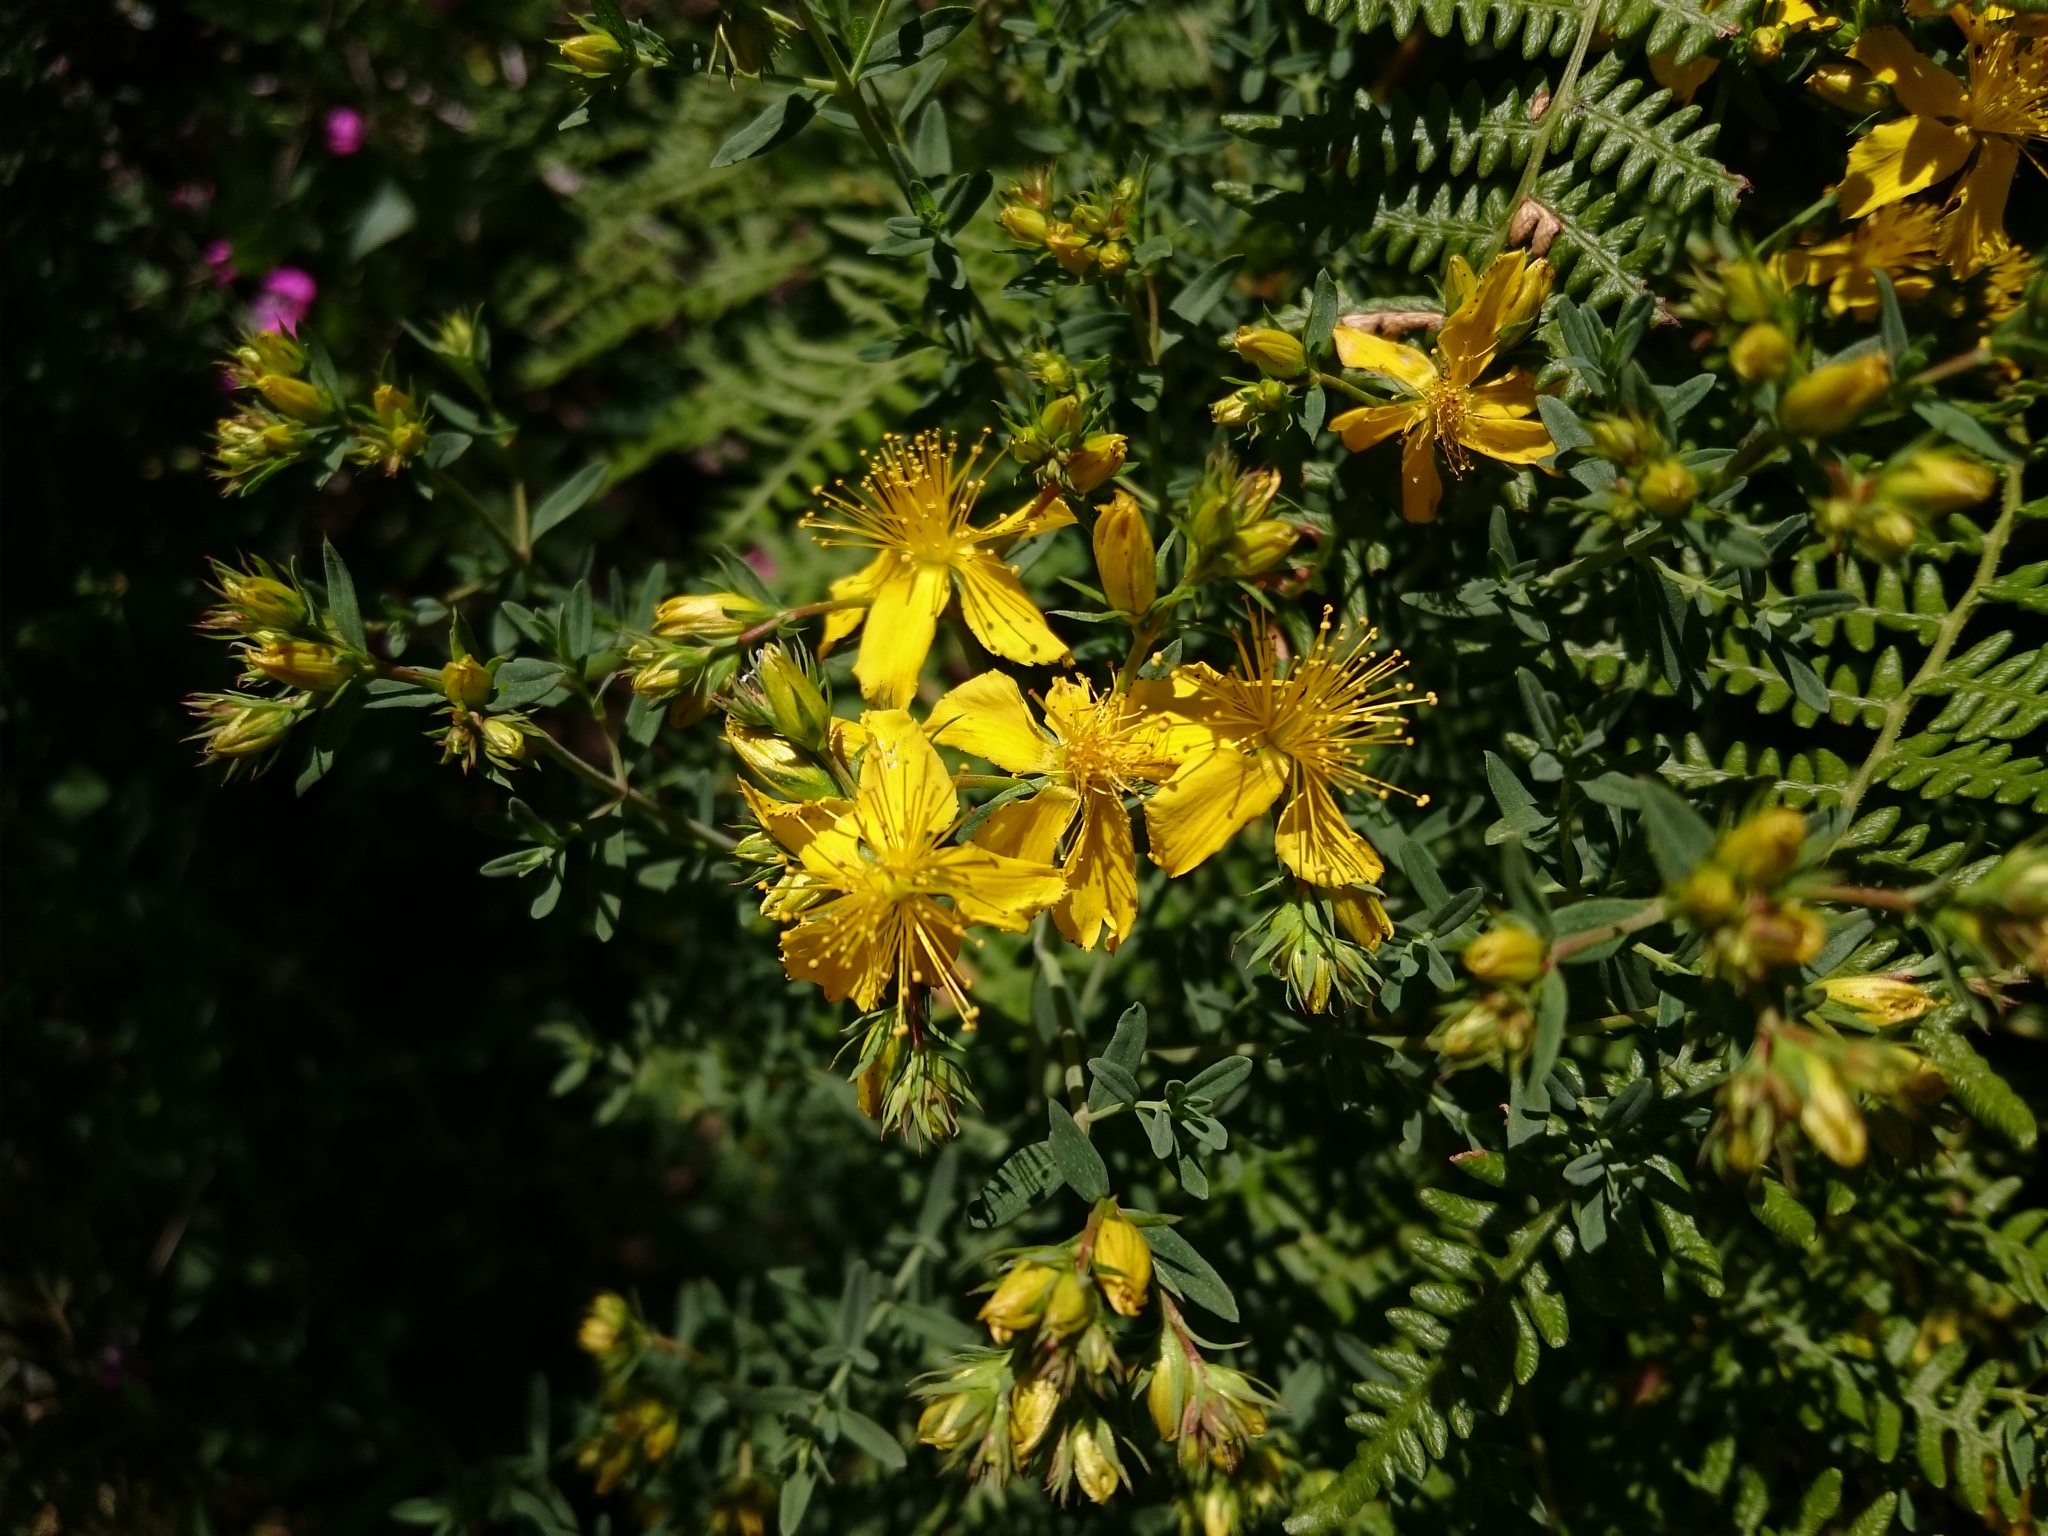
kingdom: Plantae
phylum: Tracheophyta
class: Magnoliopsida
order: Malpighiales
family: Hypericaceae
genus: Hypericum
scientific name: Hypericum perforatum
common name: Common st. johnswort
